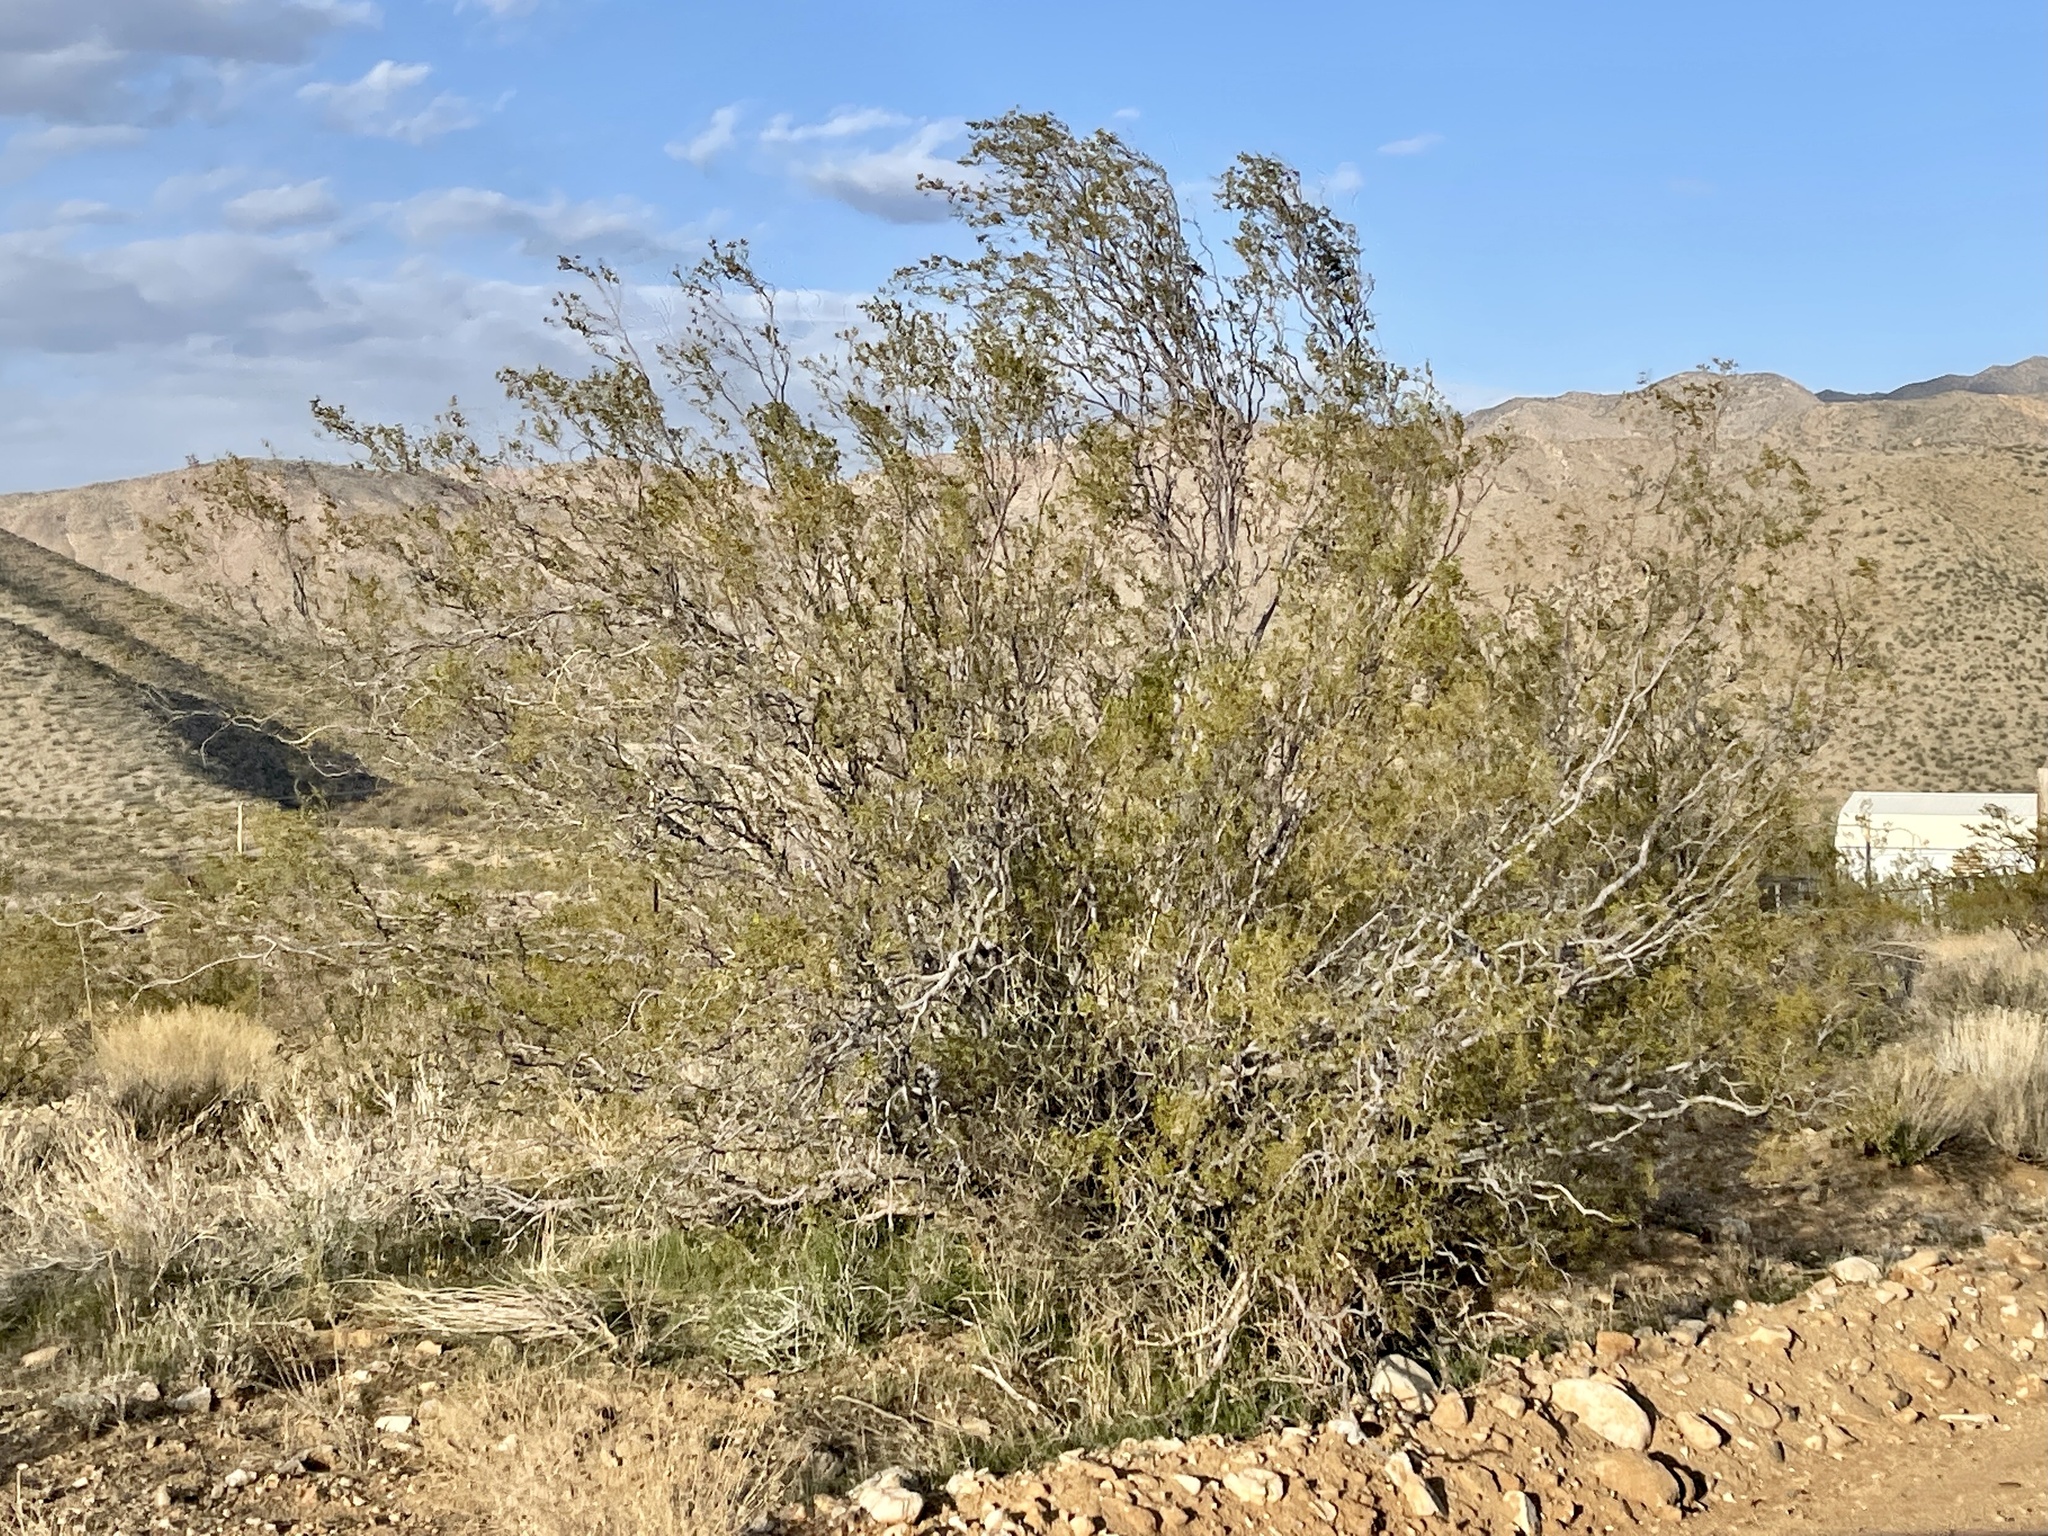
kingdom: Plantae
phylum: Tracheophyta
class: Magnoliopsida
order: Zygophyllales
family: Zygophyllaceae
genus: Larrea
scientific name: Larrea tridentata
